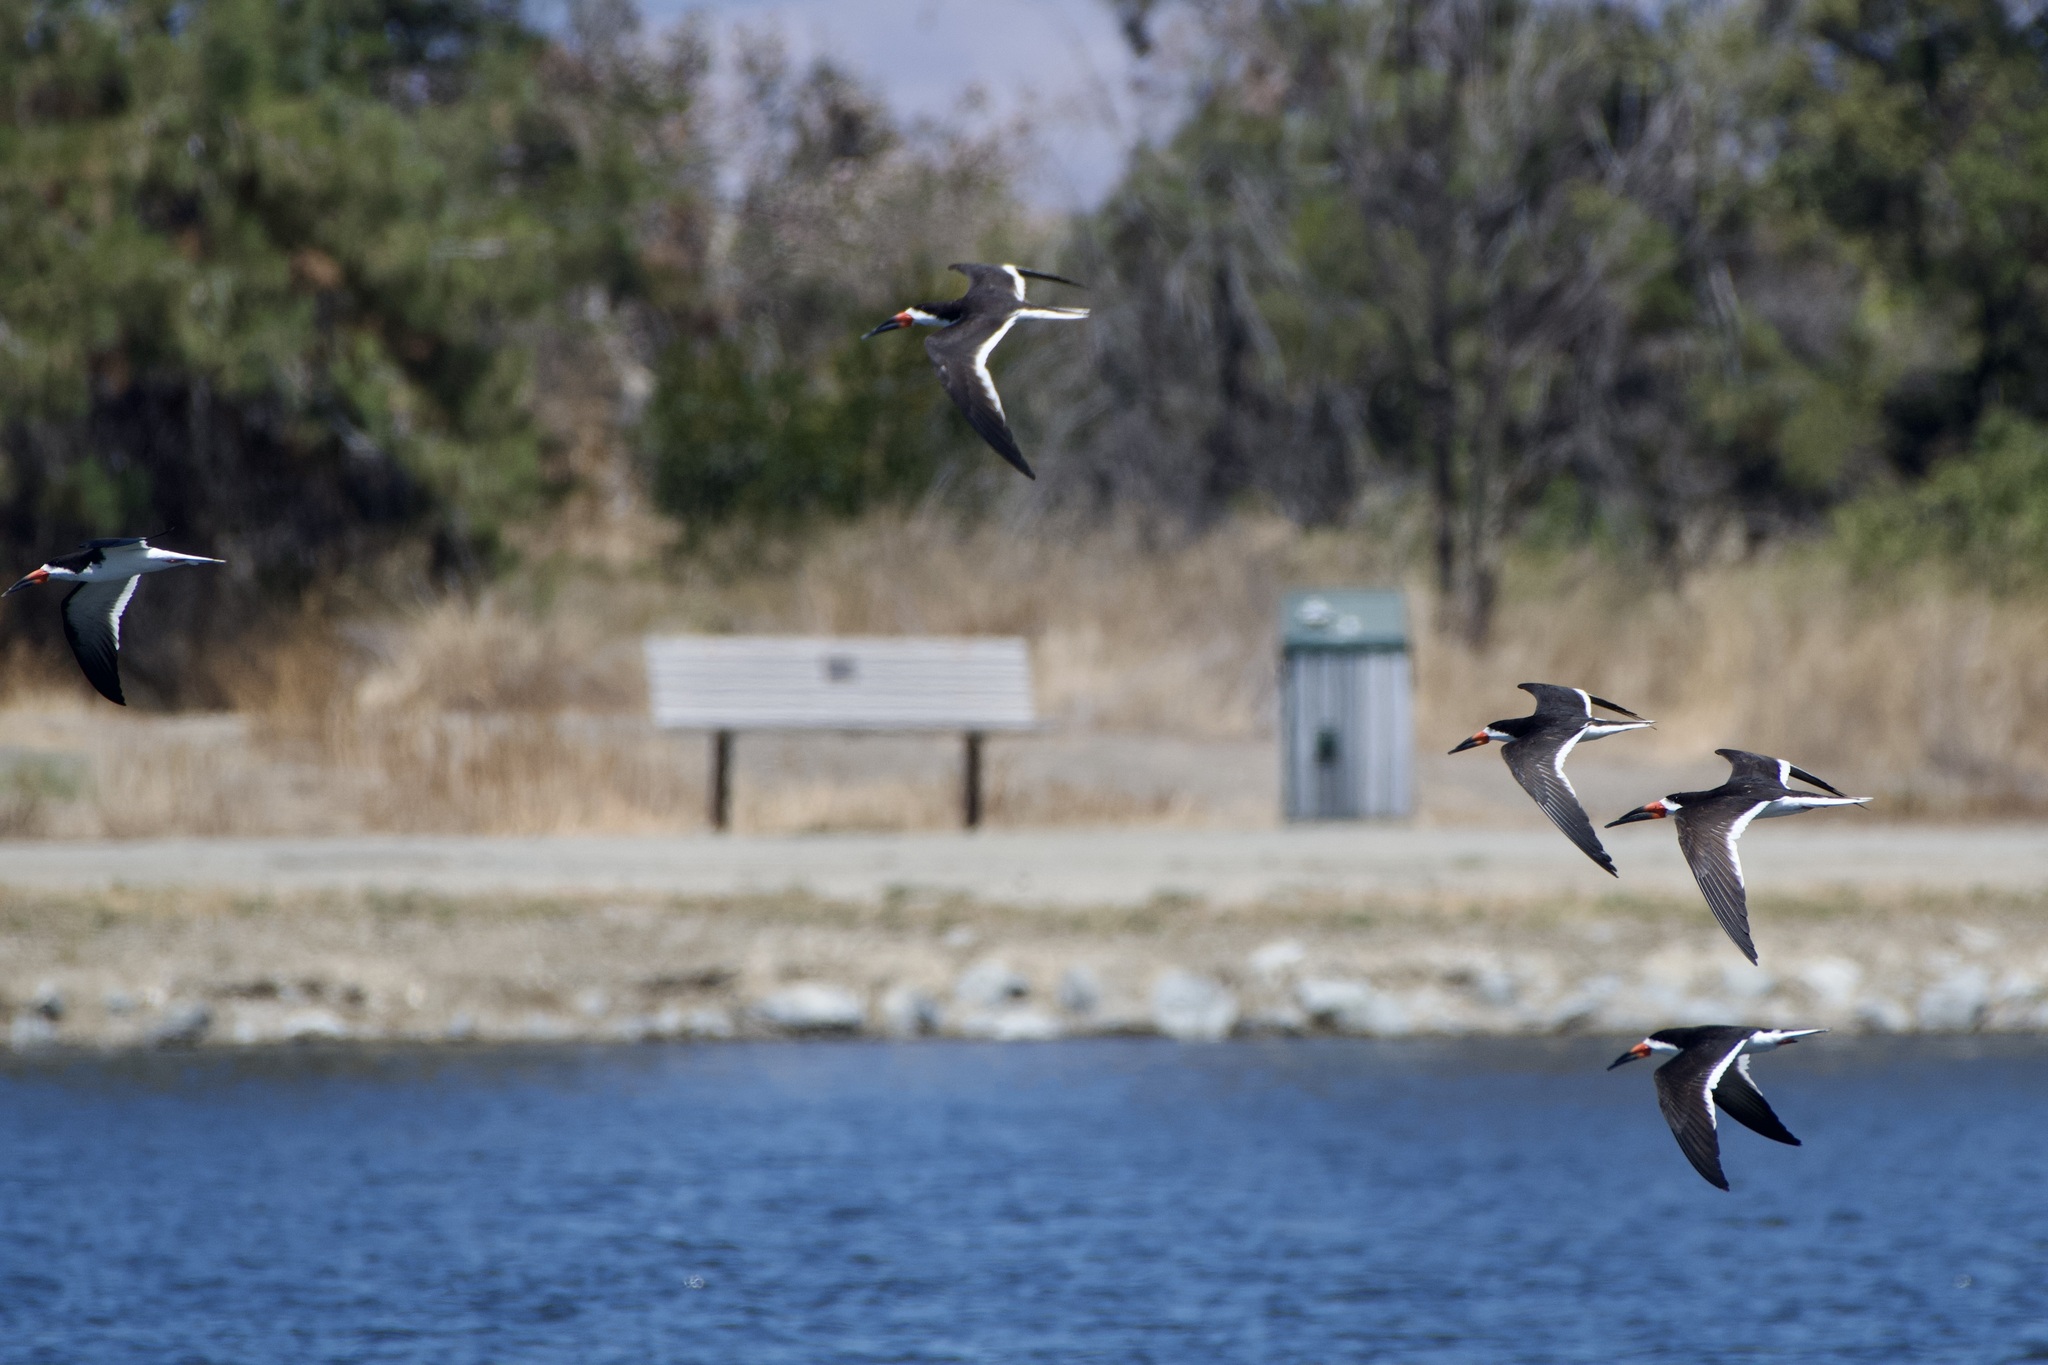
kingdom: Animalia
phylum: Chordata
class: Aves
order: Charadriiformes
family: Laridae
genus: Rynchops
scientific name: Rynchops niger
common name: Black skimmer
